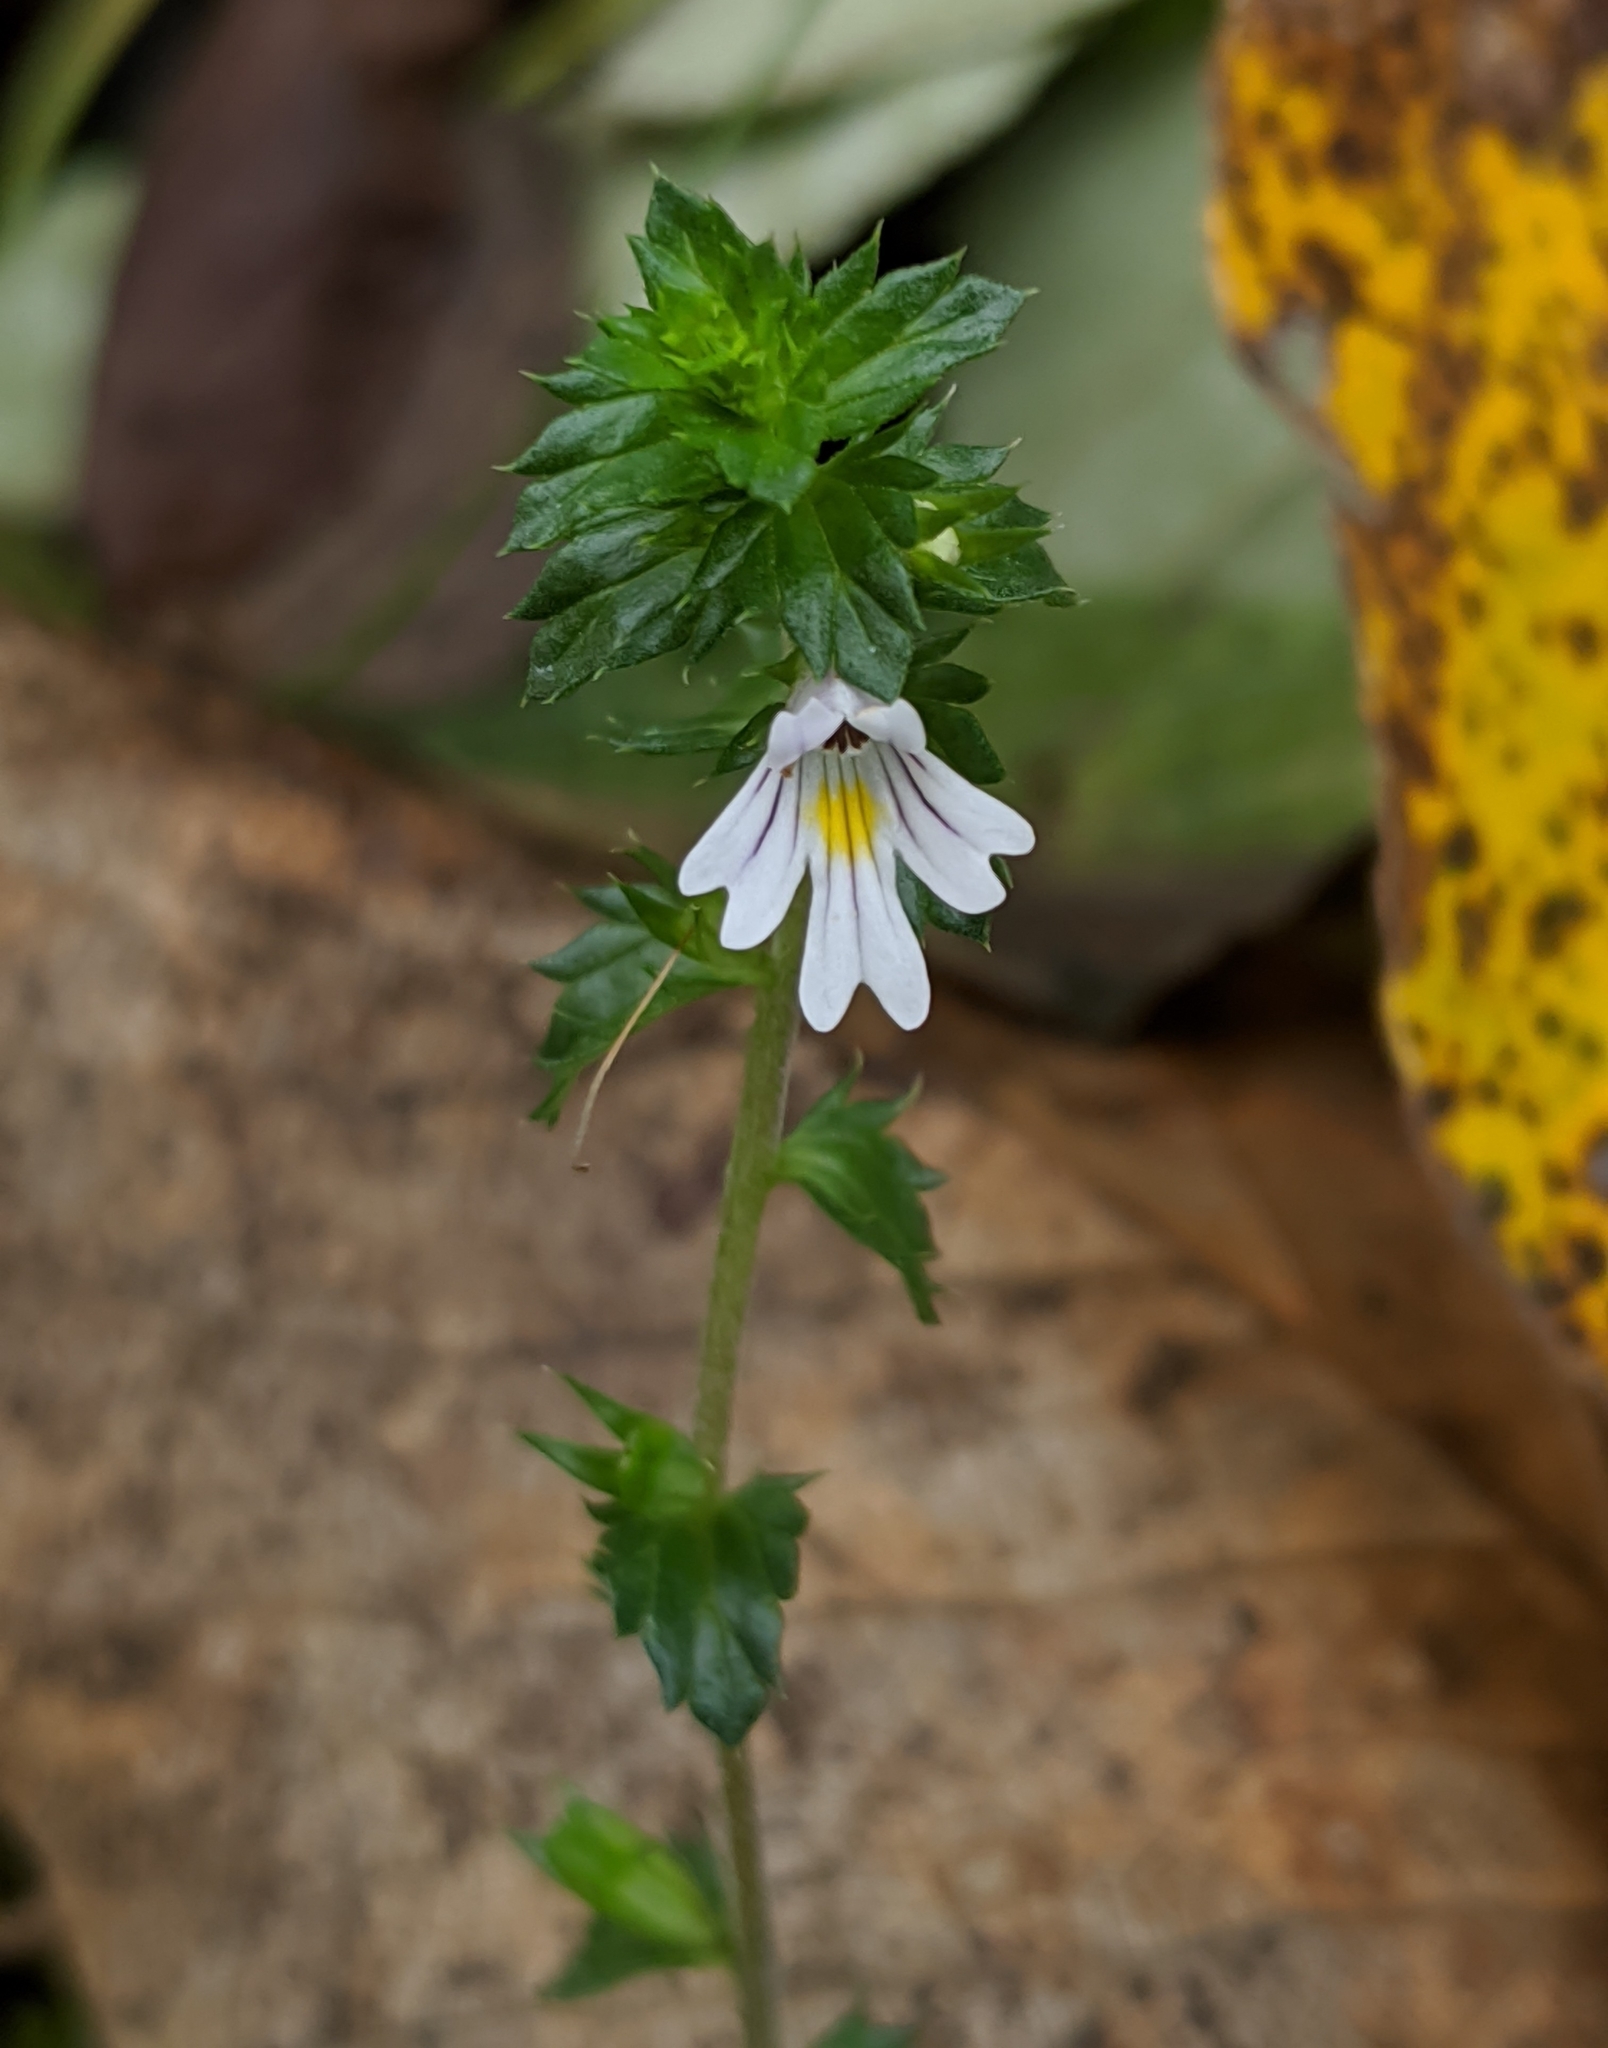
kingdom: Plantae
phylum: Tracheophyta
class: Magnoliopsida
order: Lamiales
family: Orobanchaceae
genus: Euphrasia
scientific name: Euphrasia nemorosa
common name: Common eyebright
